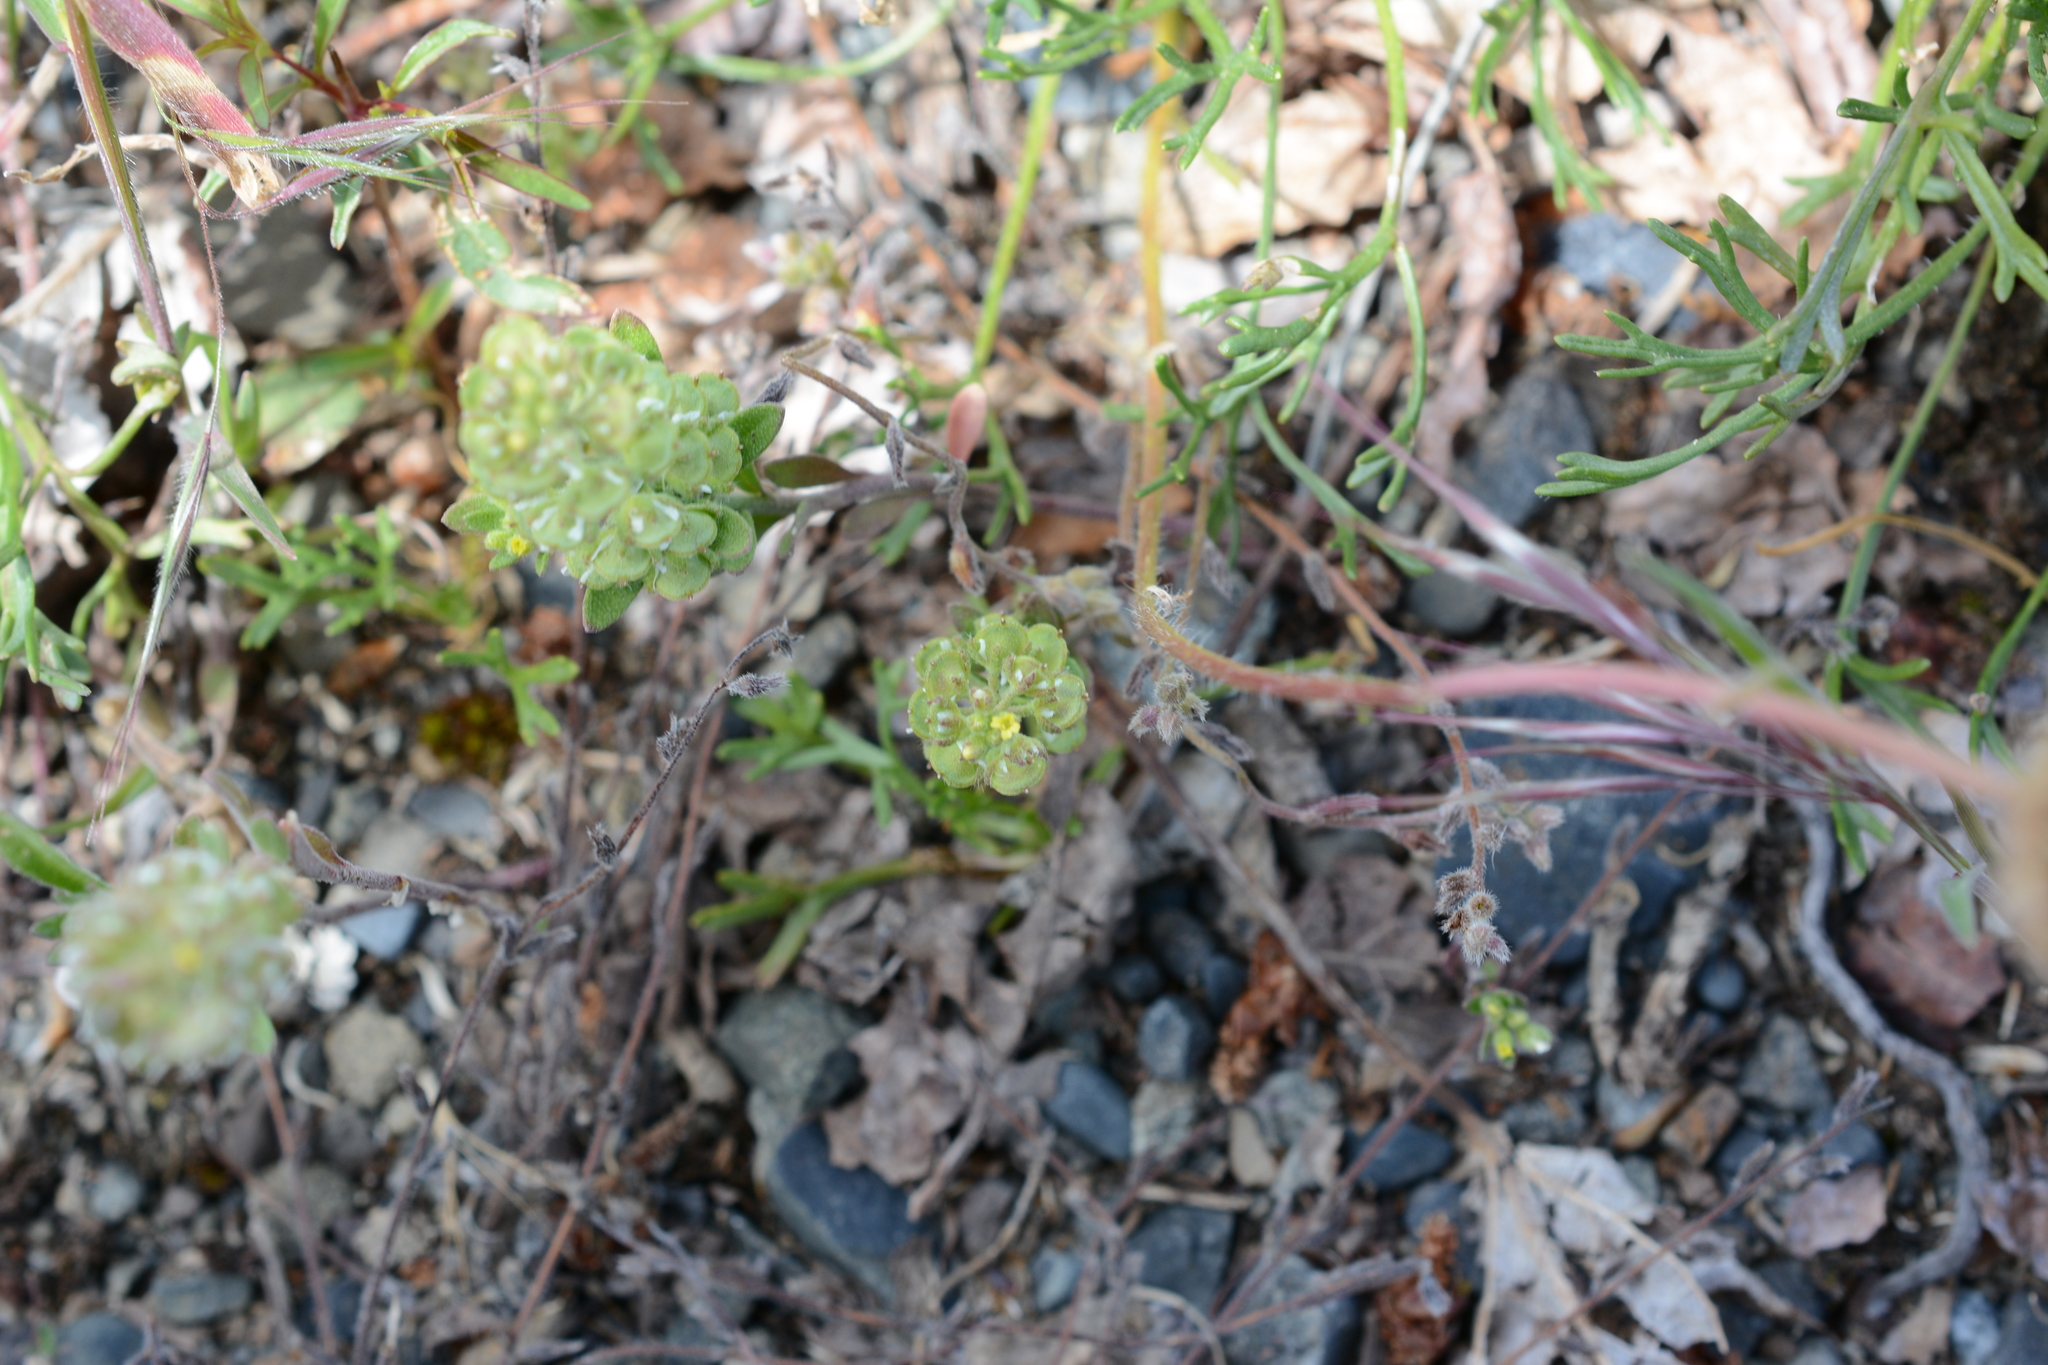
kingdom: Plantae
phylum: Tracheophyta
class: Magnoliopsida
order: Brassicales
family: Brassicaceae
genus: Alyssum
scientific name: Alyssum alyssoides
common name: Small alison
